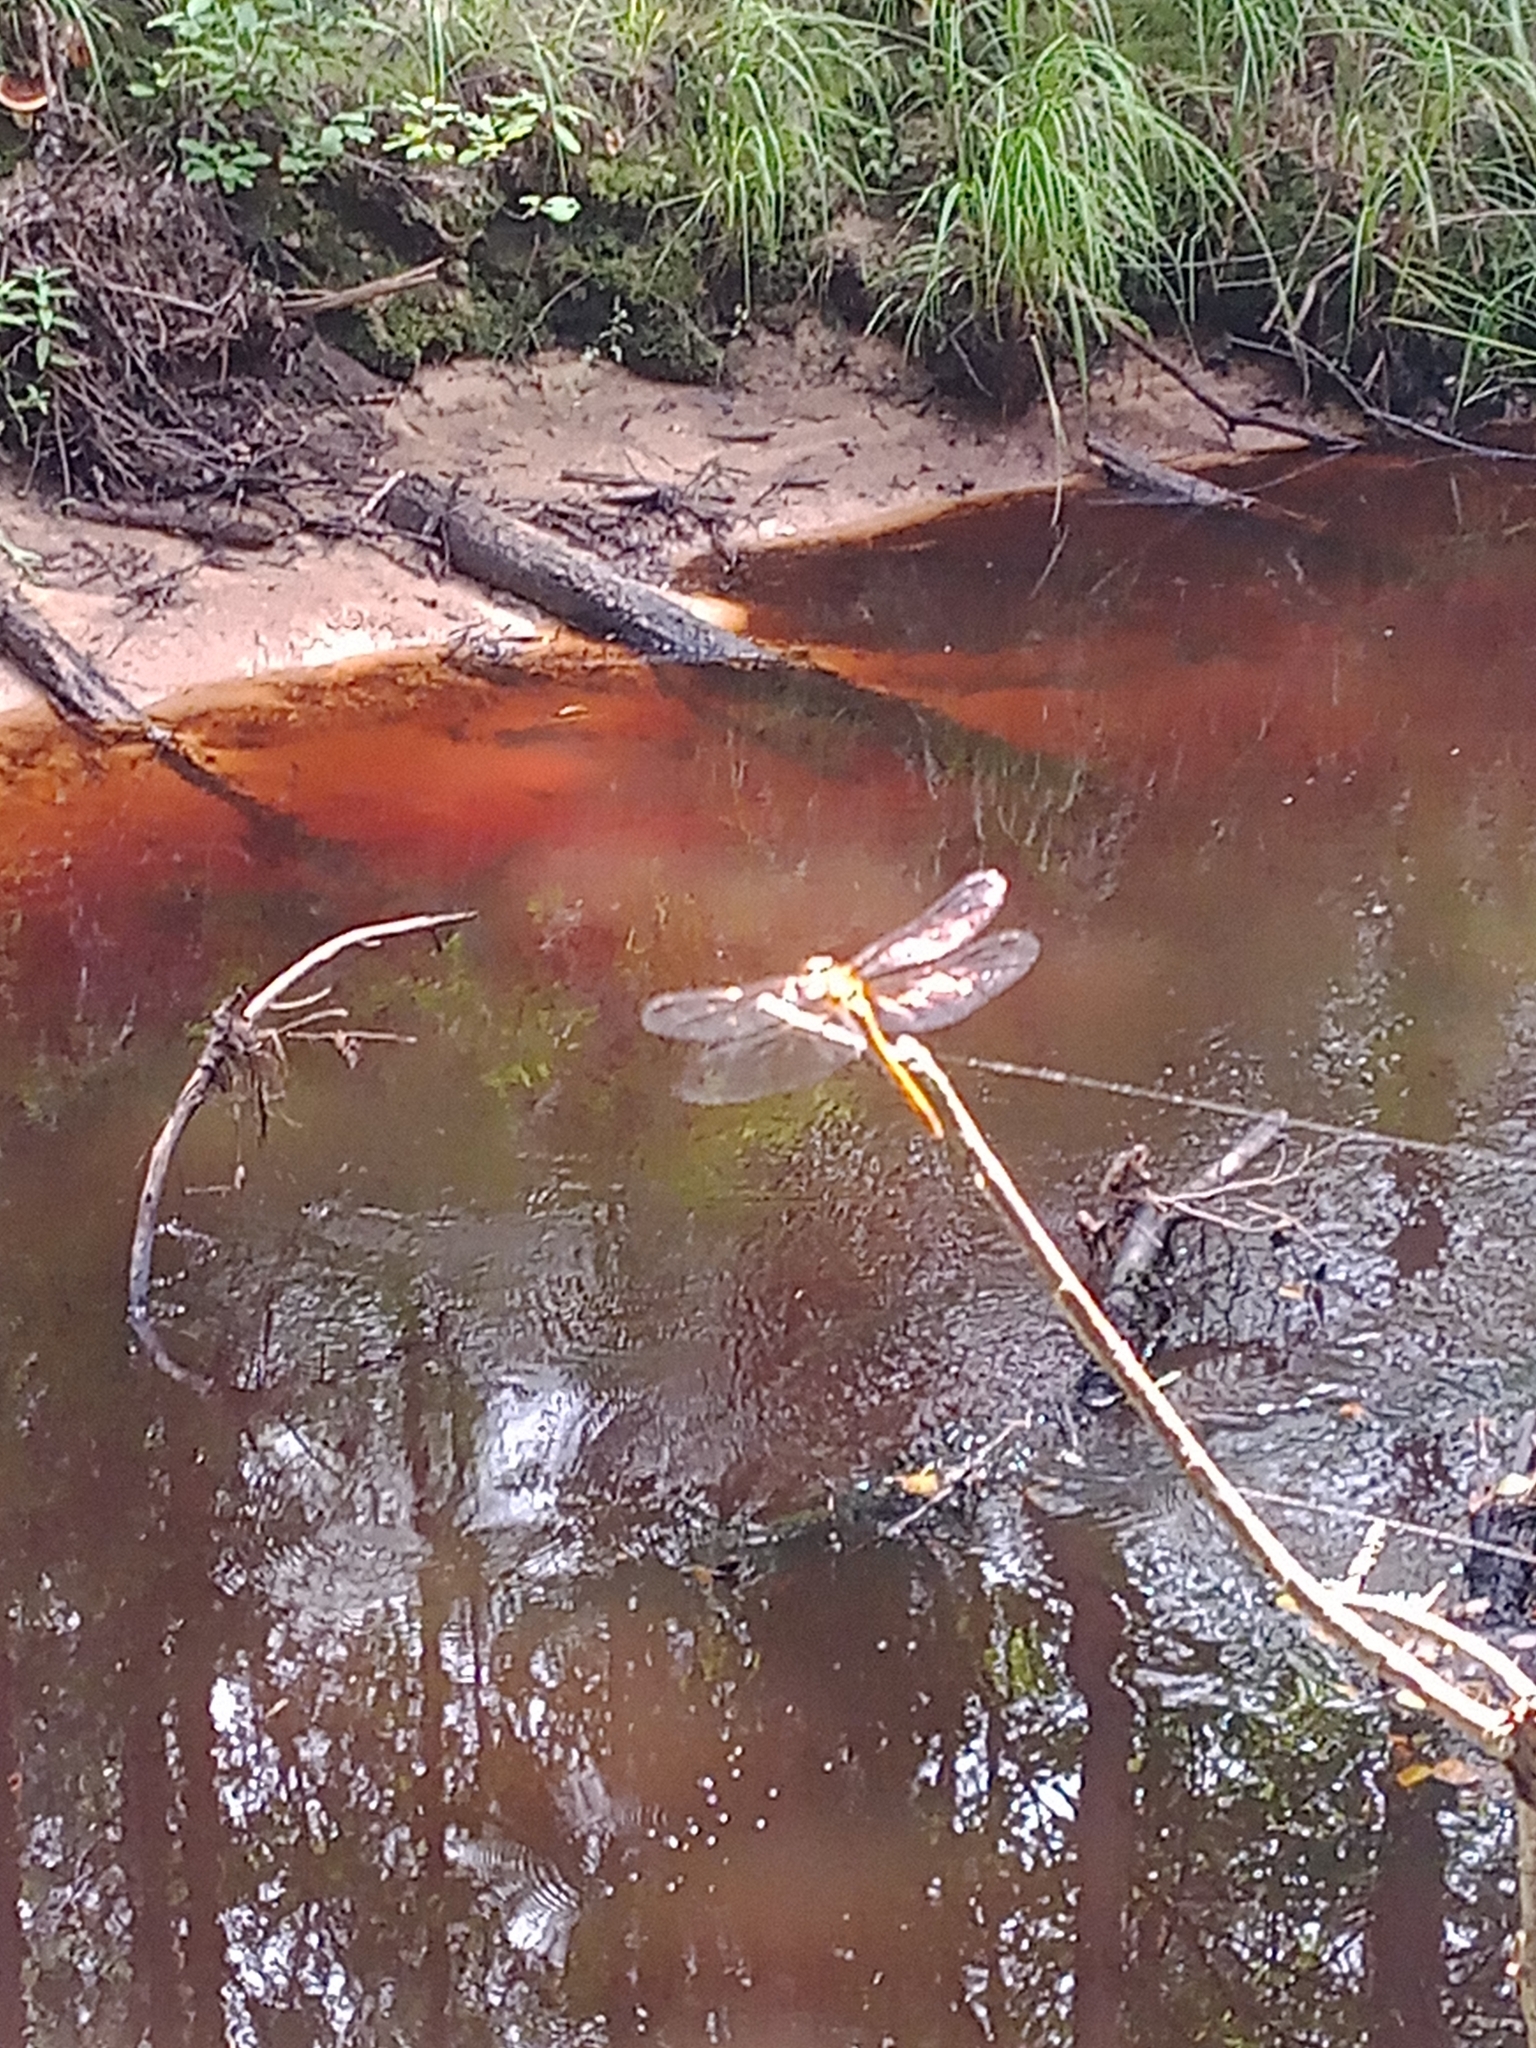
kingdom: Animalia
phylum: Arthropoda
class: Insecta
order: Odonata
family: Libellulidae
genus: Sympetrum
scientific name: Sympetrum sanguineum
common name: Ruddy darter
